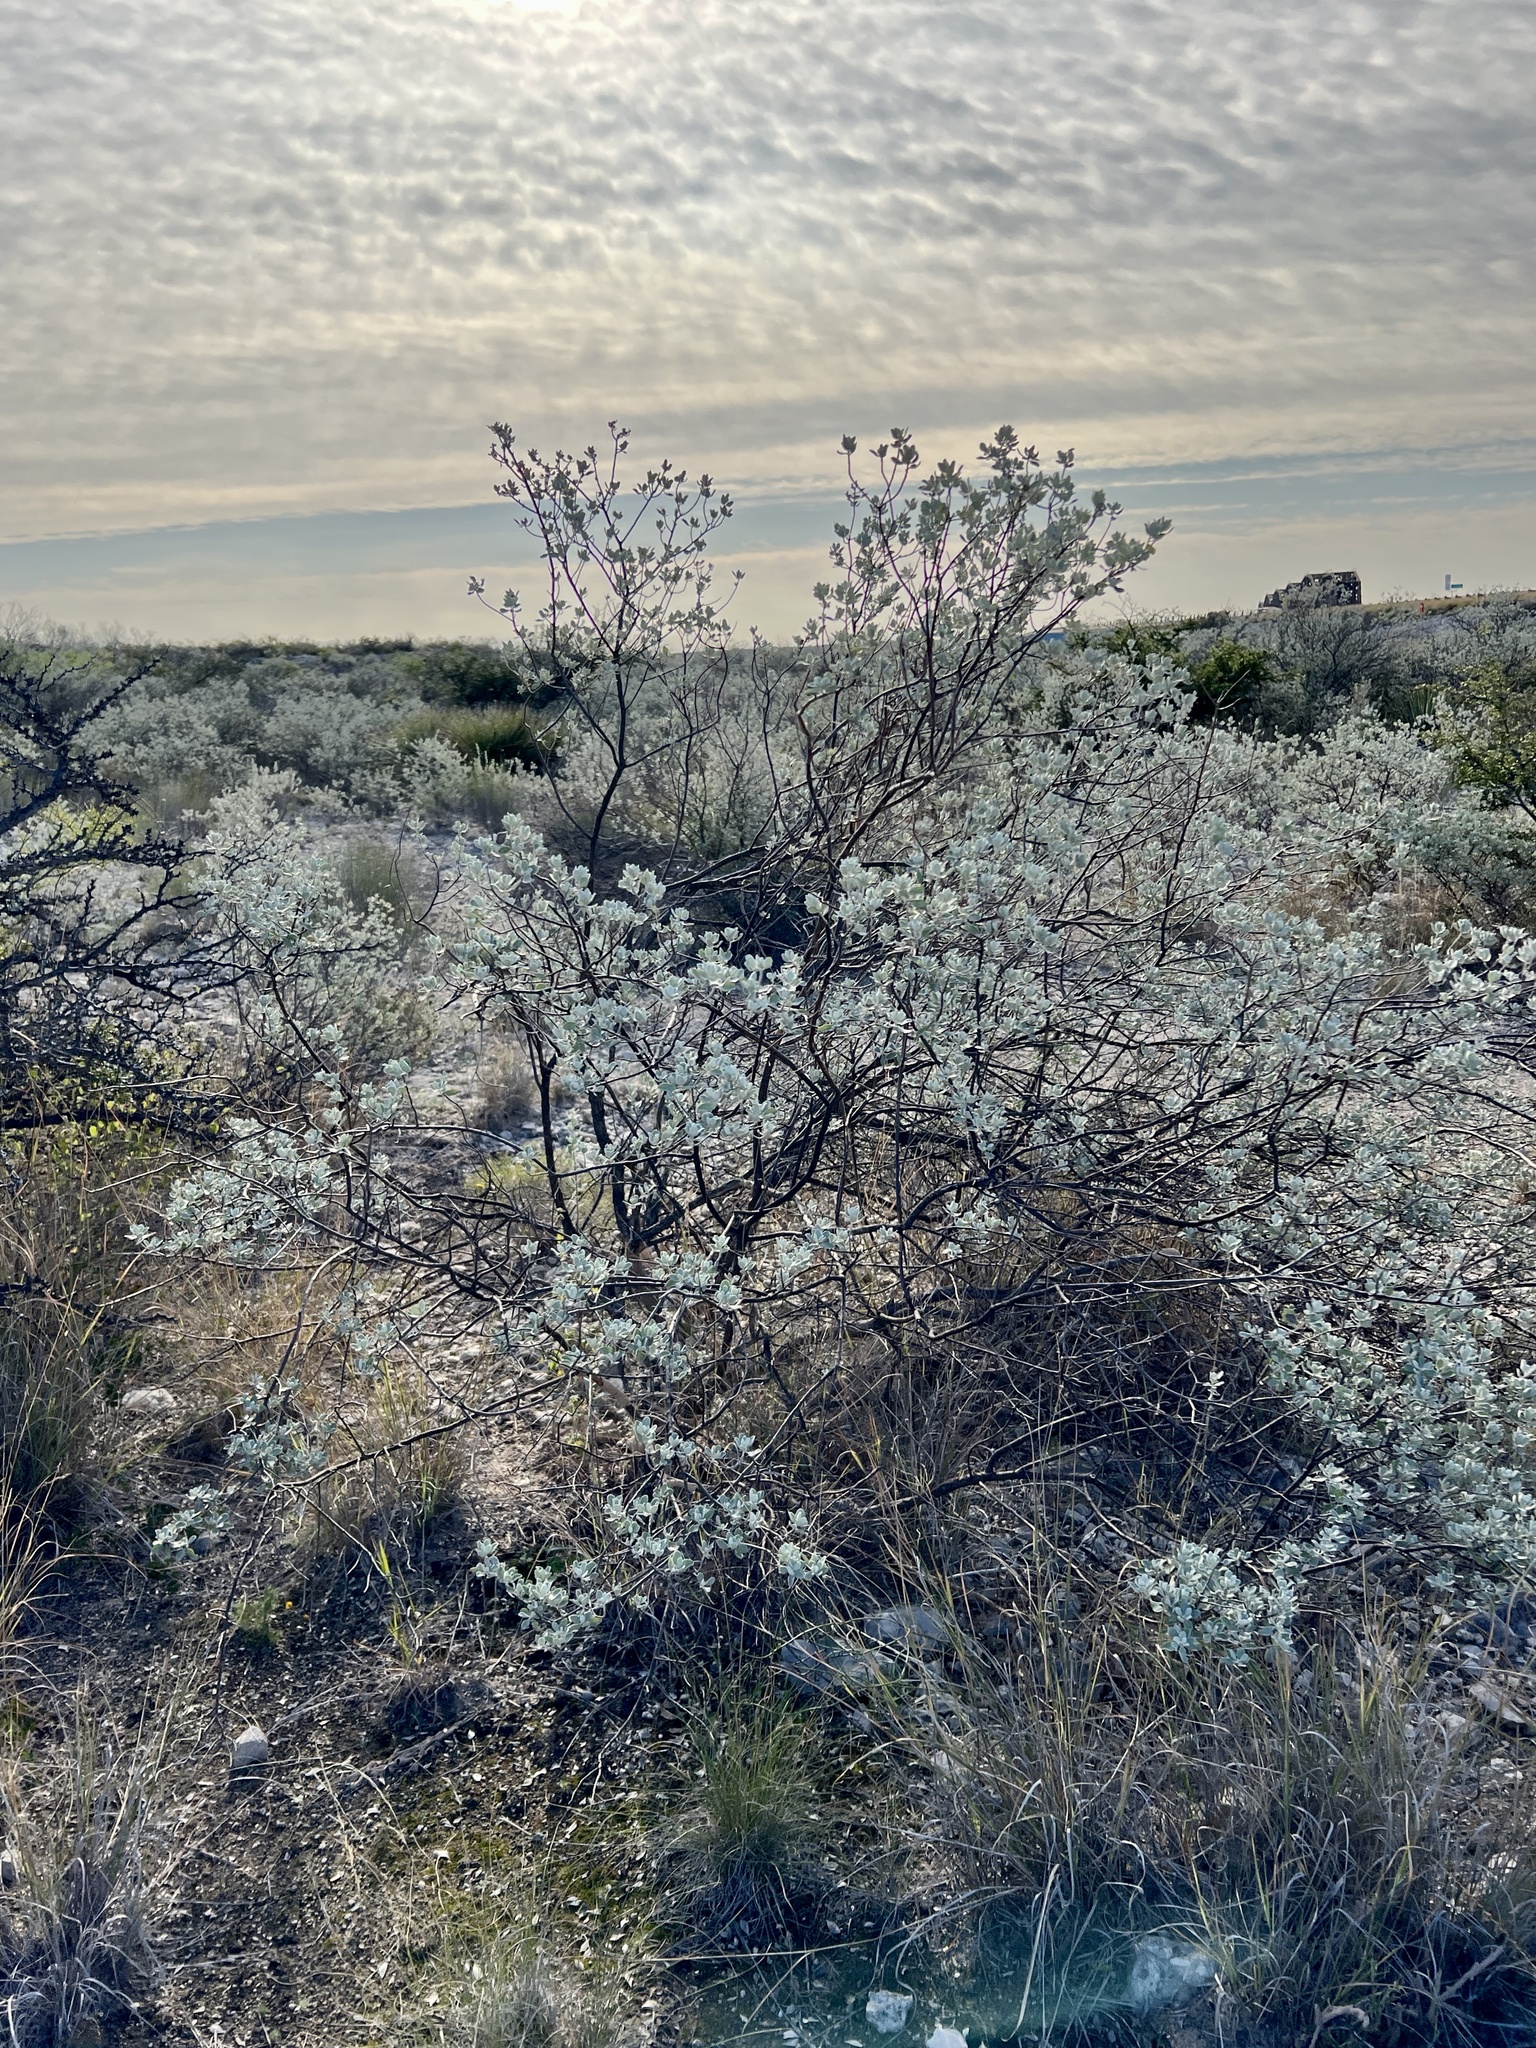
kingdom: Plantae
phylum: Tracheophyta
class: Magnoliopsida
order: Lamiales
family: Scrophulariaceae
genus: Leucophyllum
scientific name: Leucophyllum frutescens
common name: Texas silverleaf
